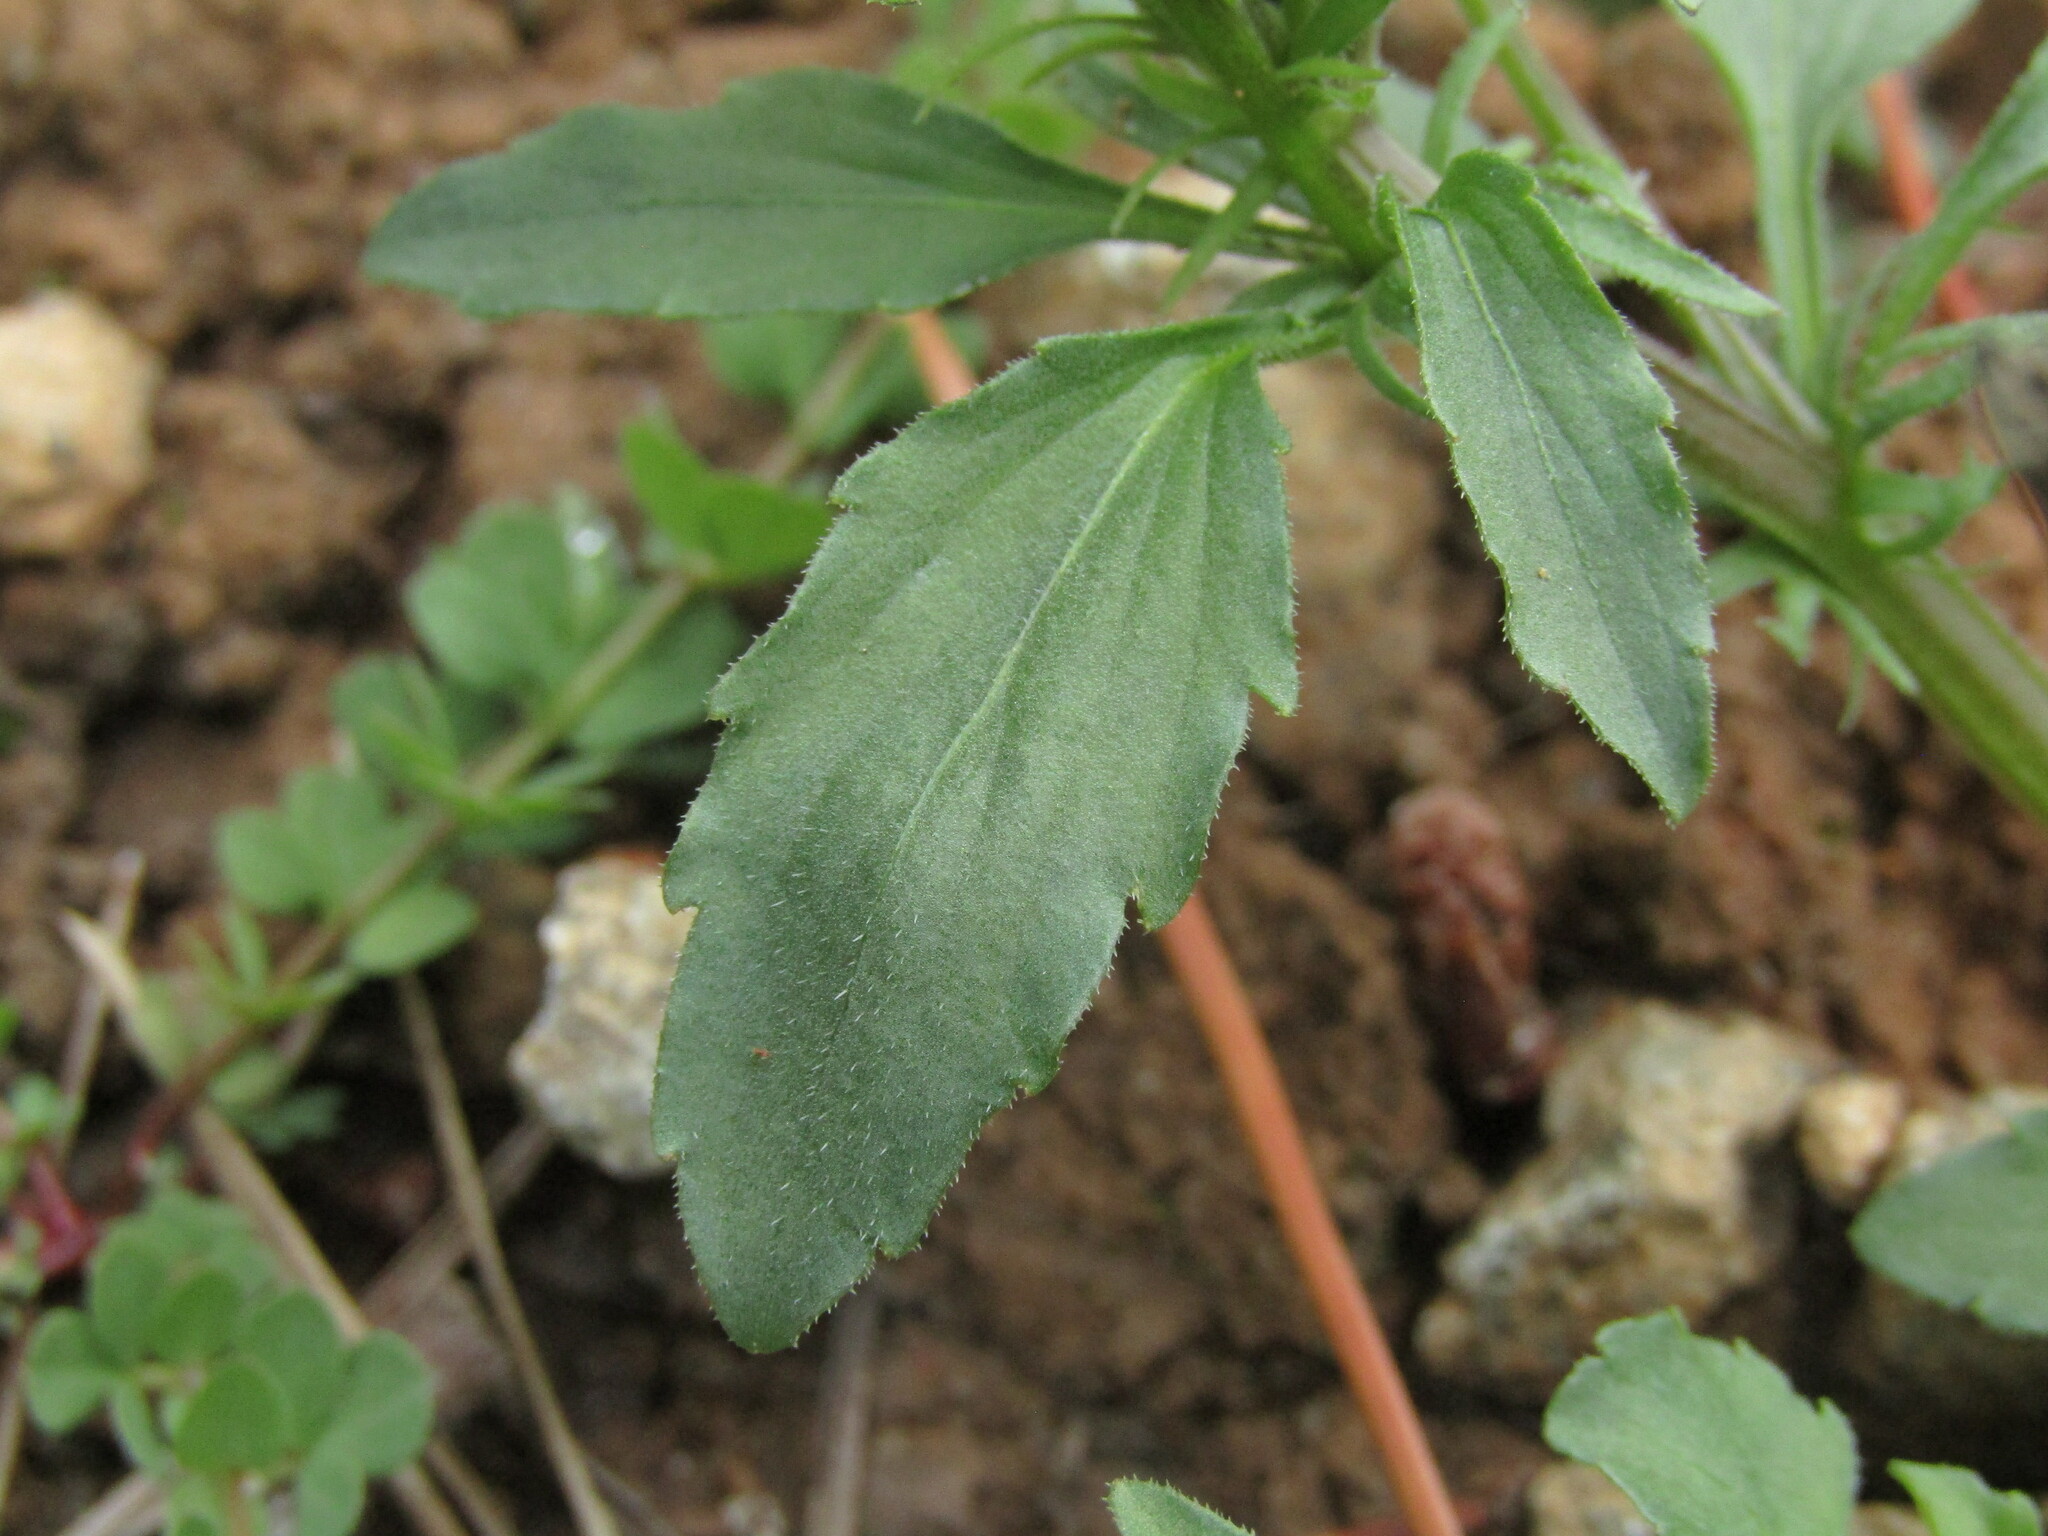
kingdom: Plantae
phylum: Tracheophyta
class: Magnoliopsida
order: Malpighiales
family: Violaceae
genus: Viola
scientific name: Viola arvensis
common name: Field pansy
